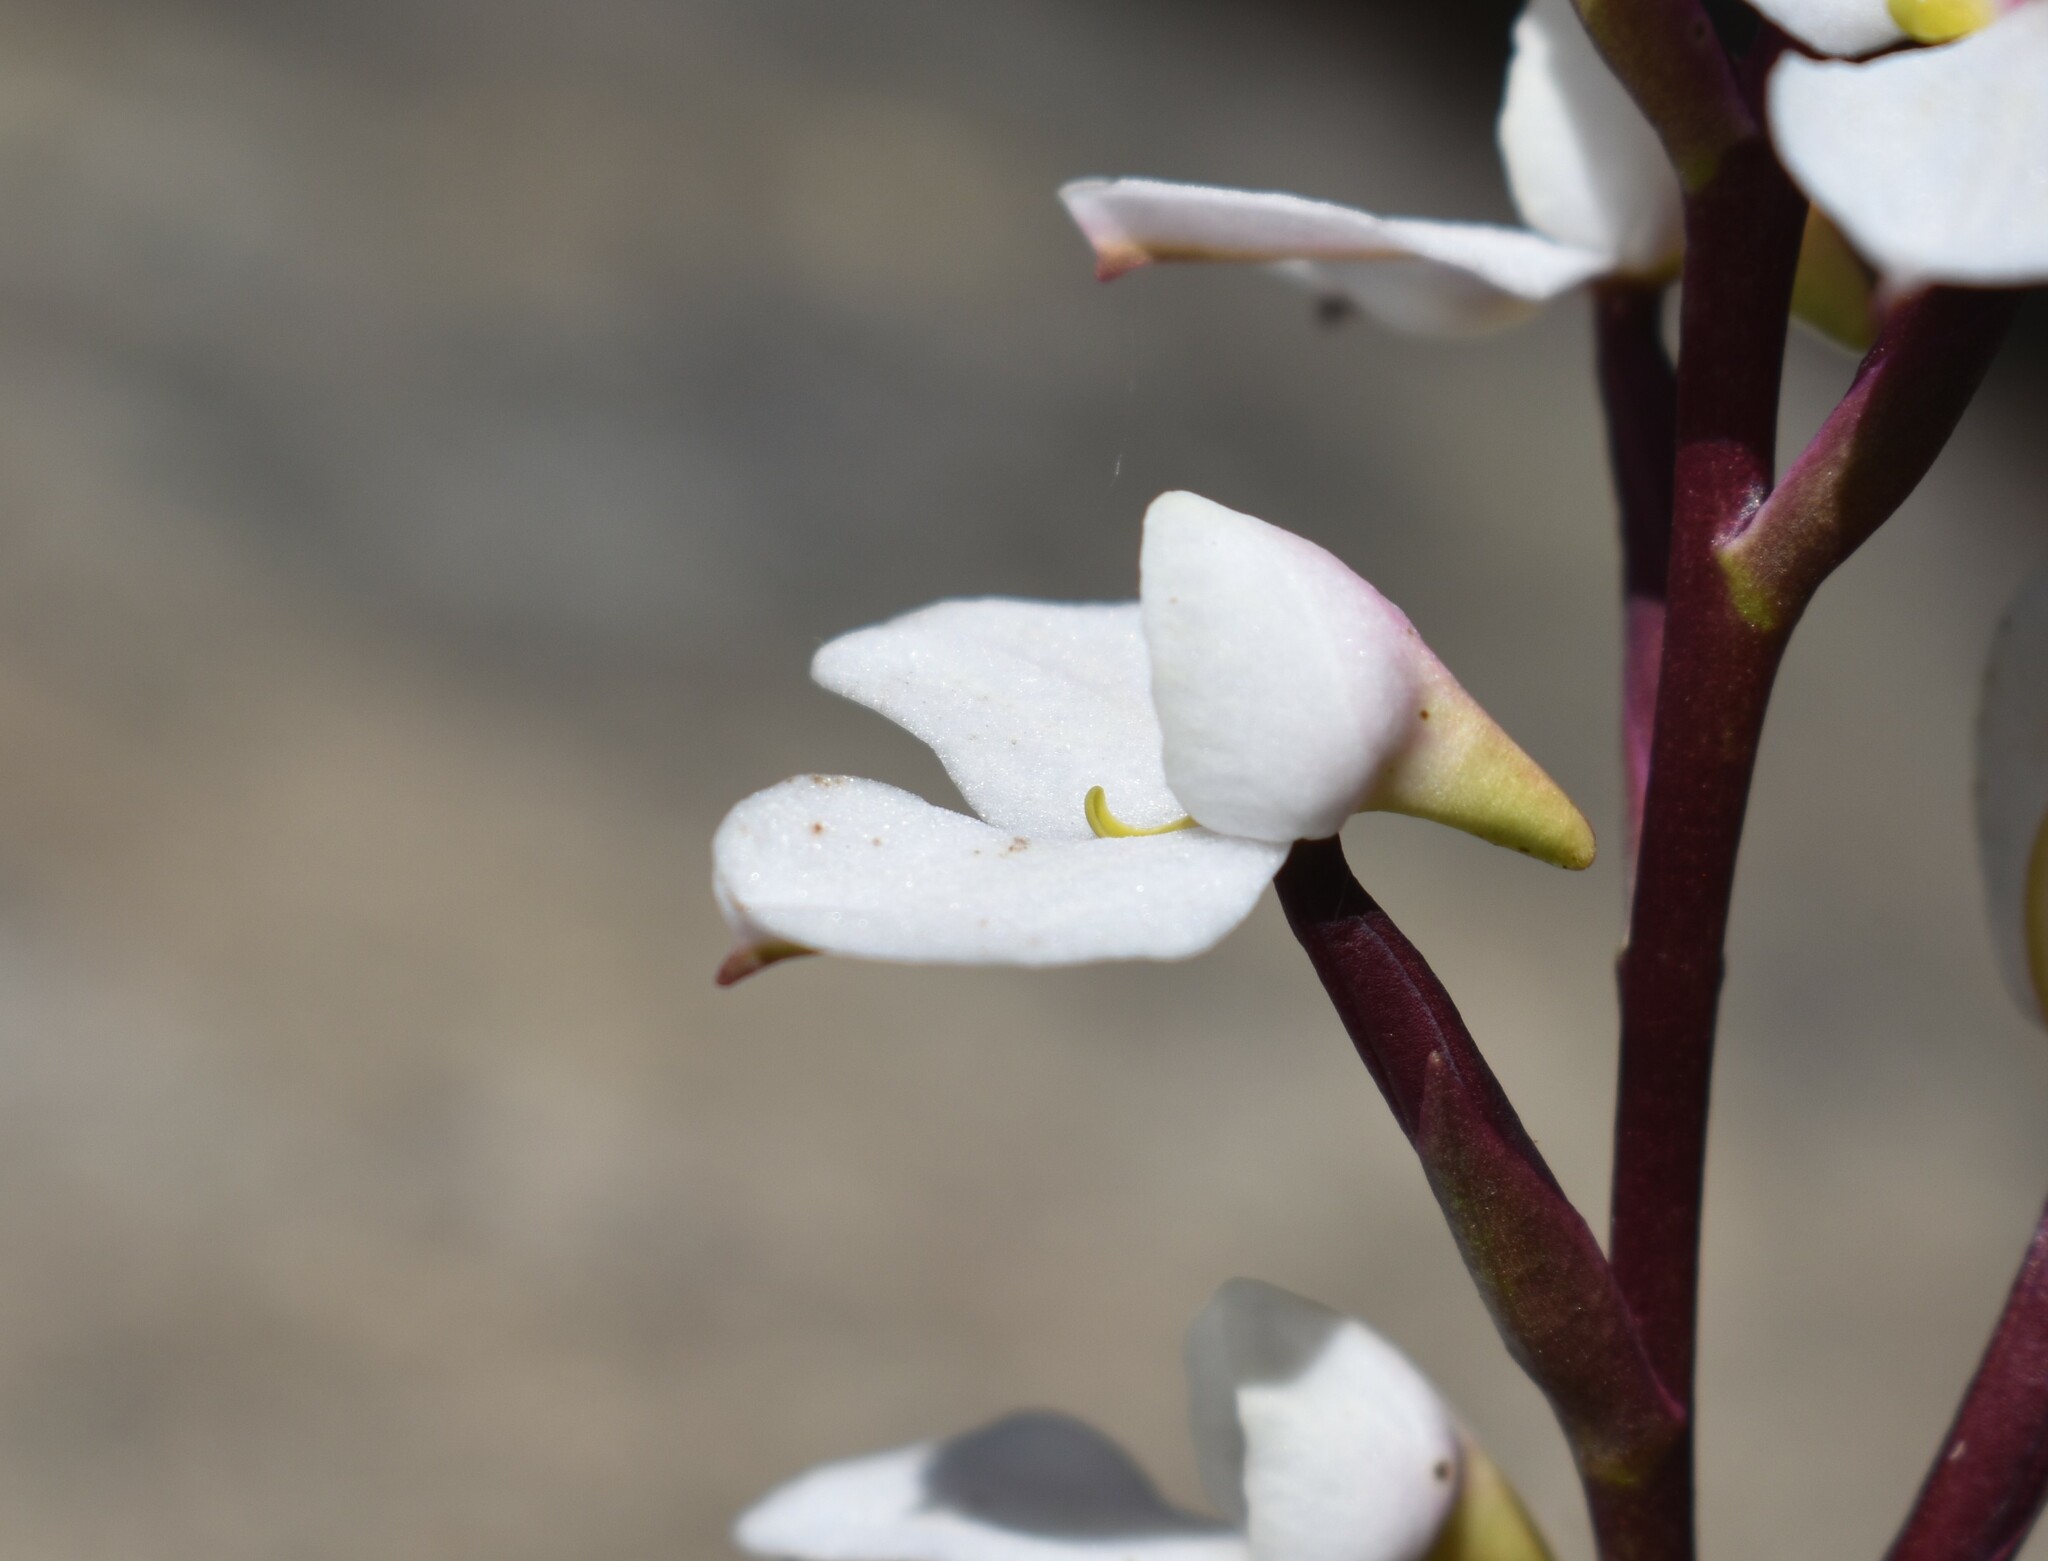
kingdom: Plantae
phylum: Tracheophyta
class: Liliopsida
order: Asparagales
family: Orchidaceae
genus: Disa
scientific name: Disa tripetaloides
